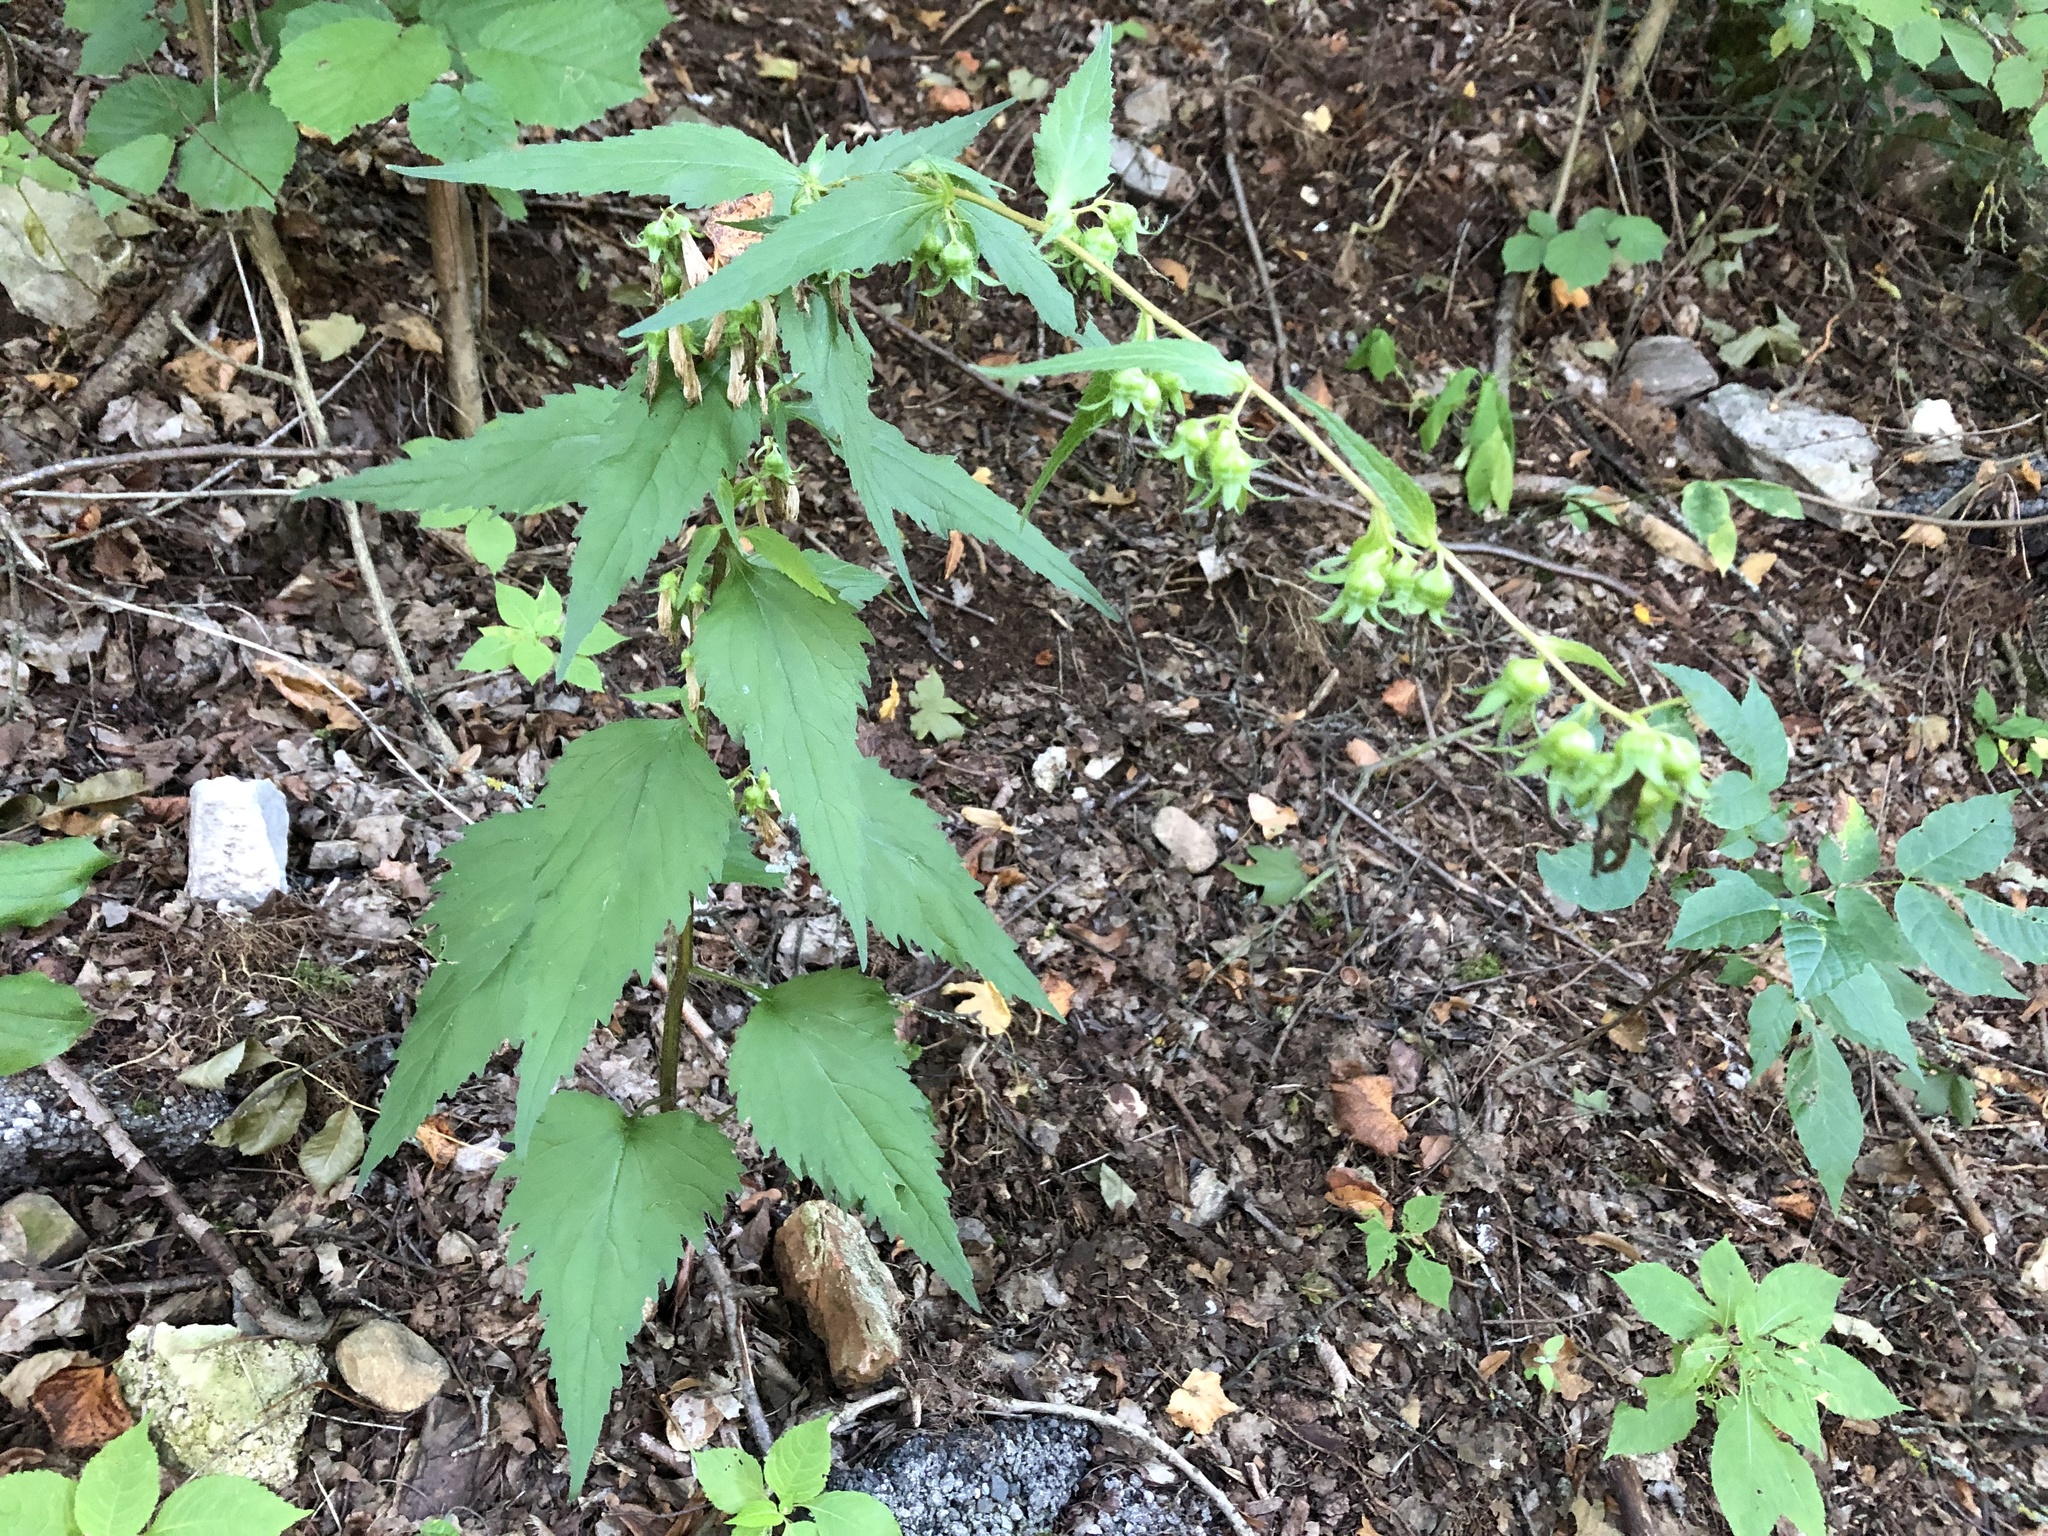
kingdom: Plantae
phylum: Tracheophyta
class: Magnoliopsida
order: Asterales
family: Campanulaceae
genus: Campanula
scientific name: Campanula trachelium
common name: Nettle-leaved bellflower
